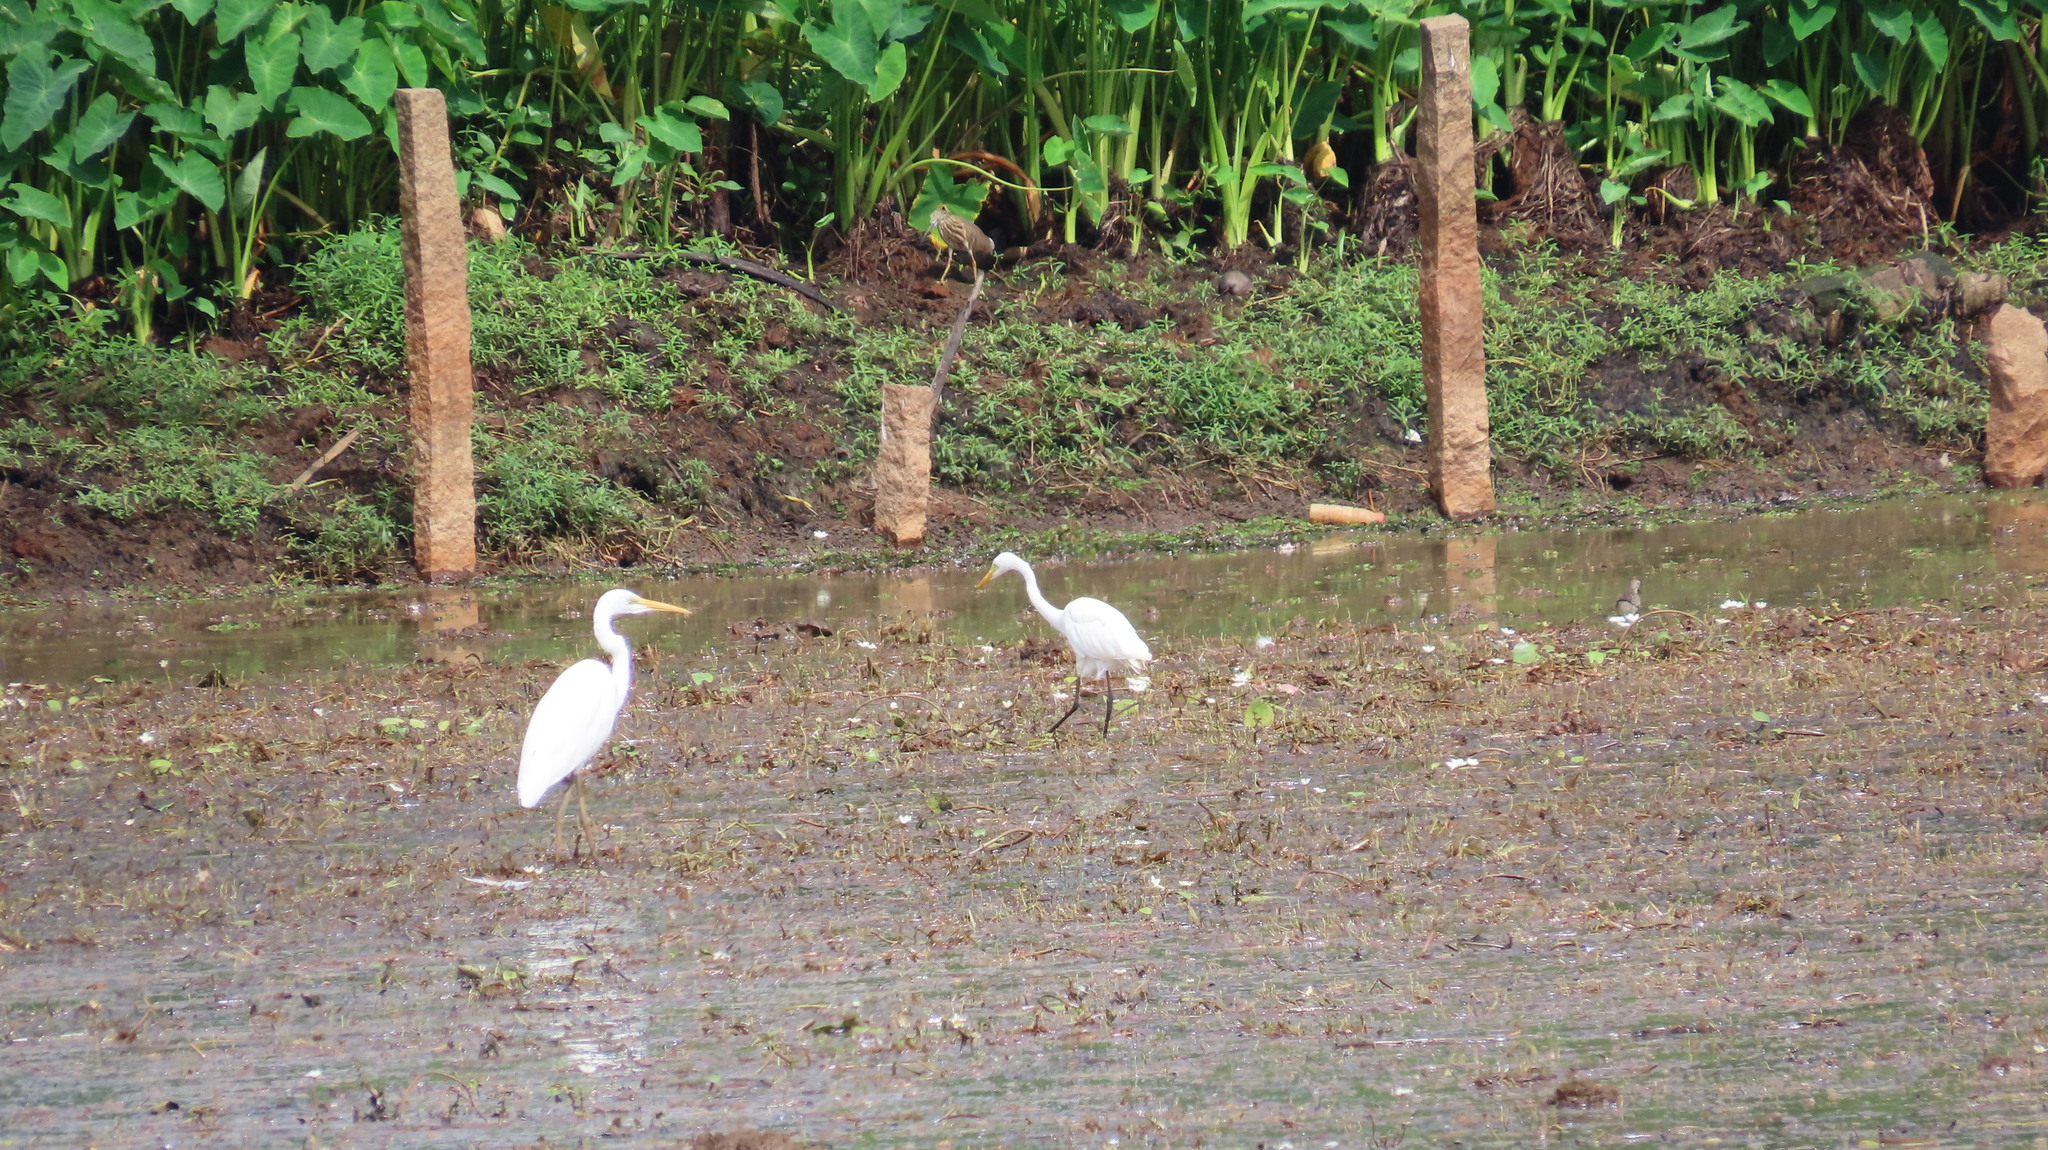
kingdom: Animalia
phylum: Chordata
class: Aves
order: Pelecaniformes
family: Ardeidae
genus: Egretta
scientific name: Egretta intermedia
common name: Intermediate egret
